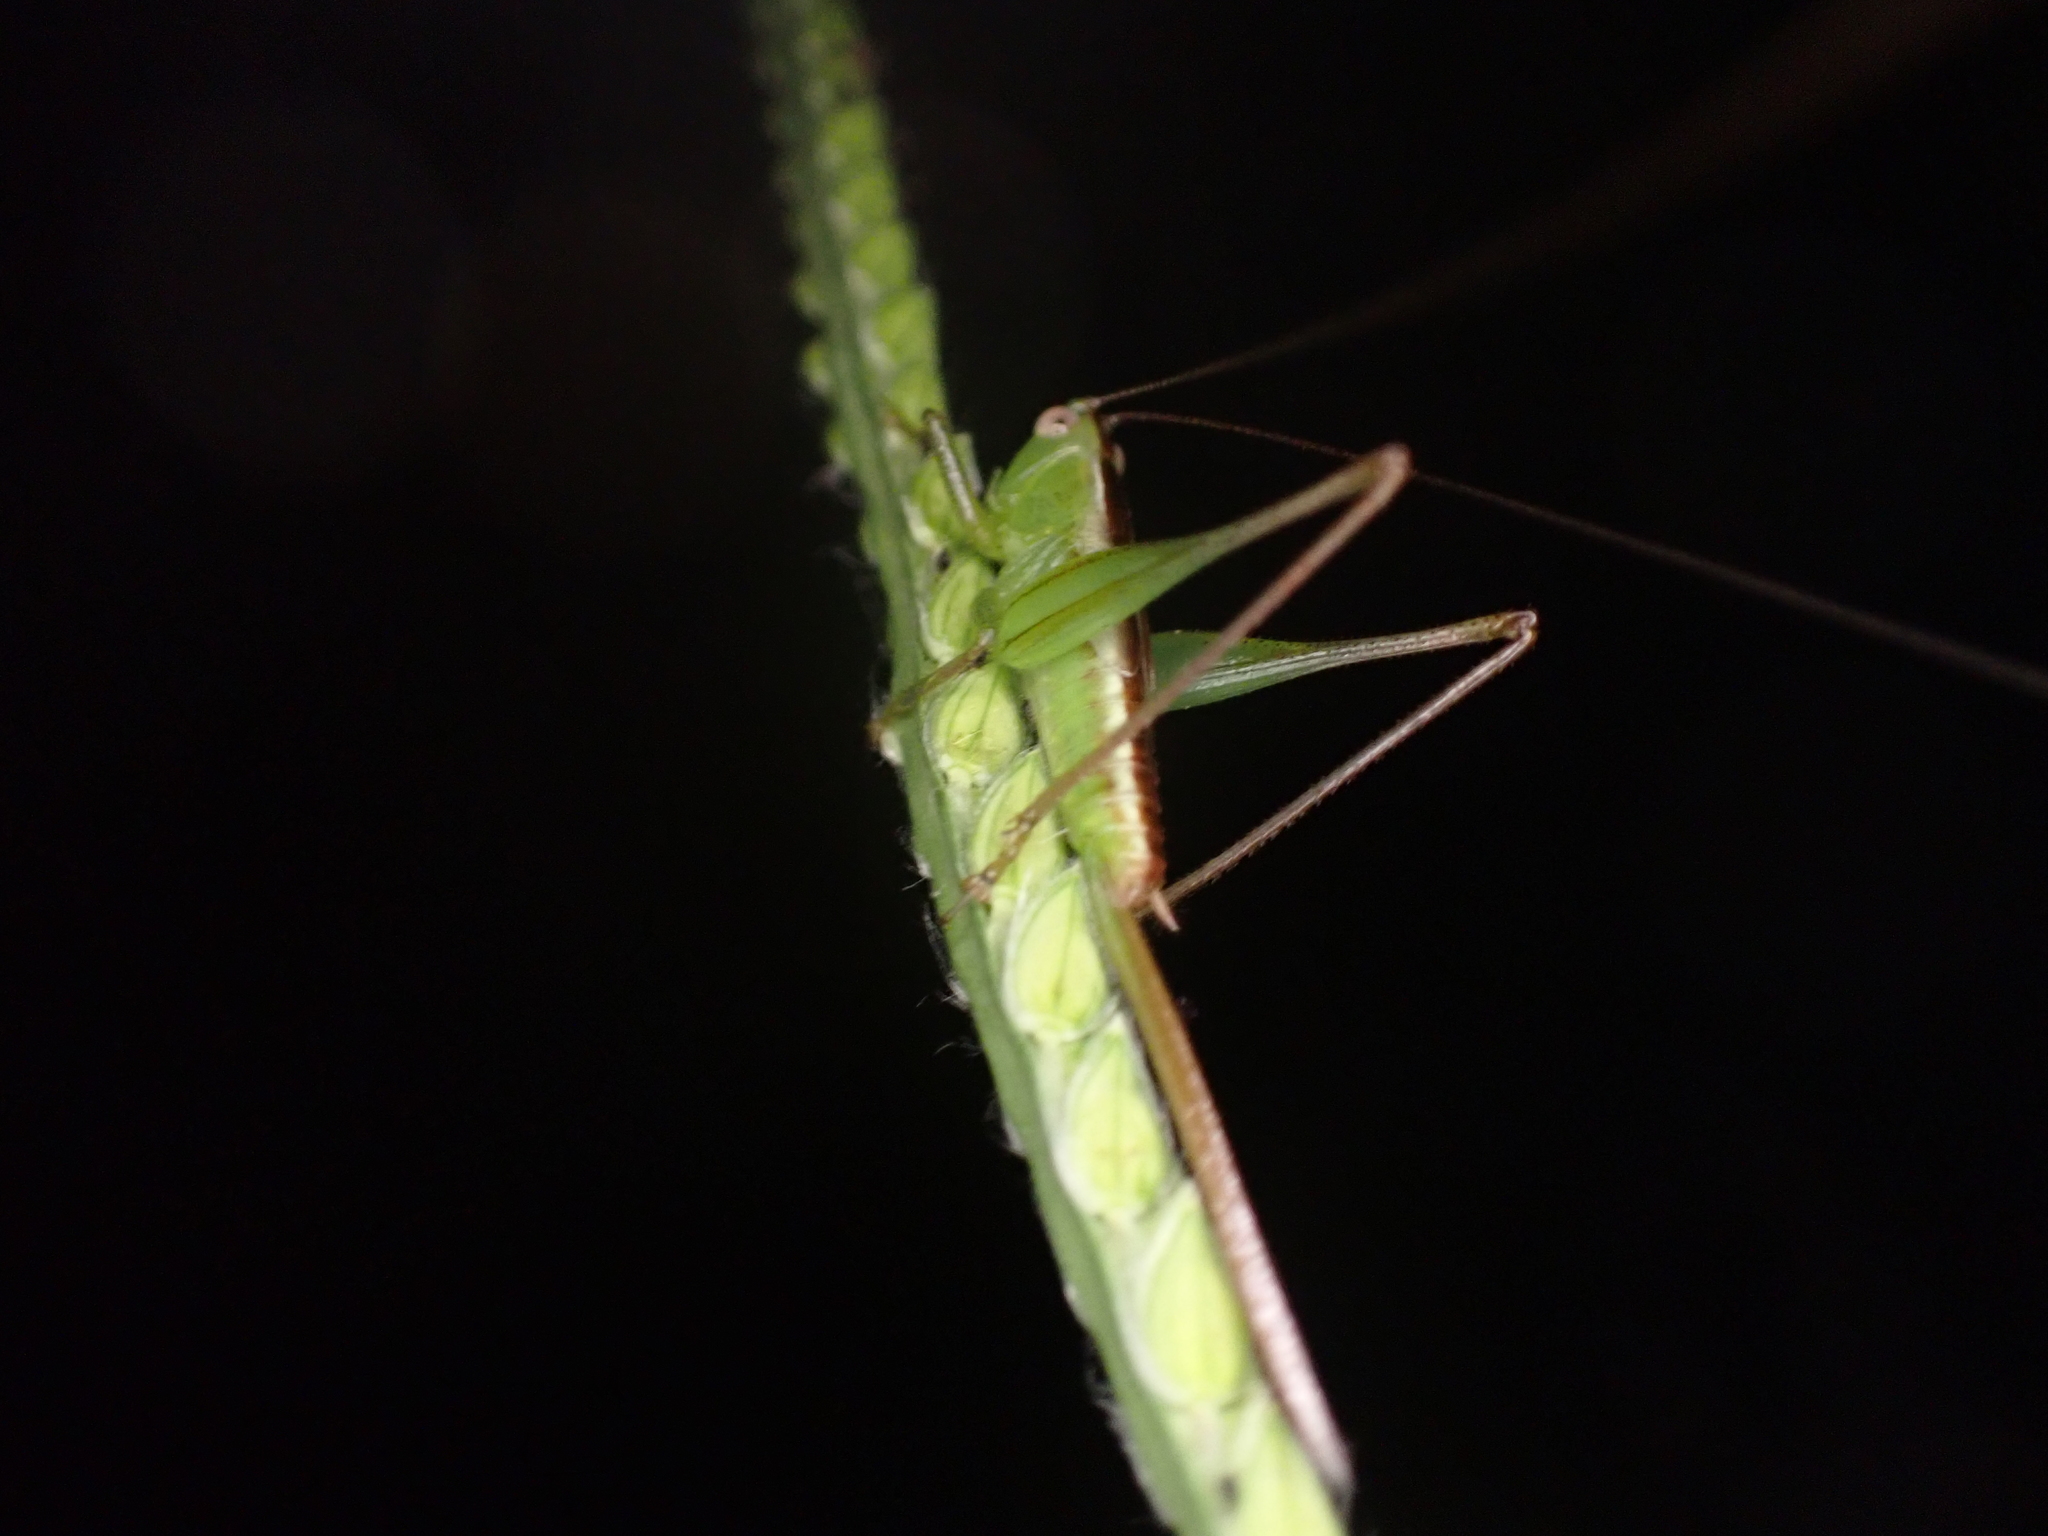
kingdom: Animalia
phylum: Arthropoda
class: Insecta
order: Orthoptera
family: Tettigoniidae
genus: Conocephalus
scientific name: Conocephalus strictus
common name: Straight-lanced katydid
